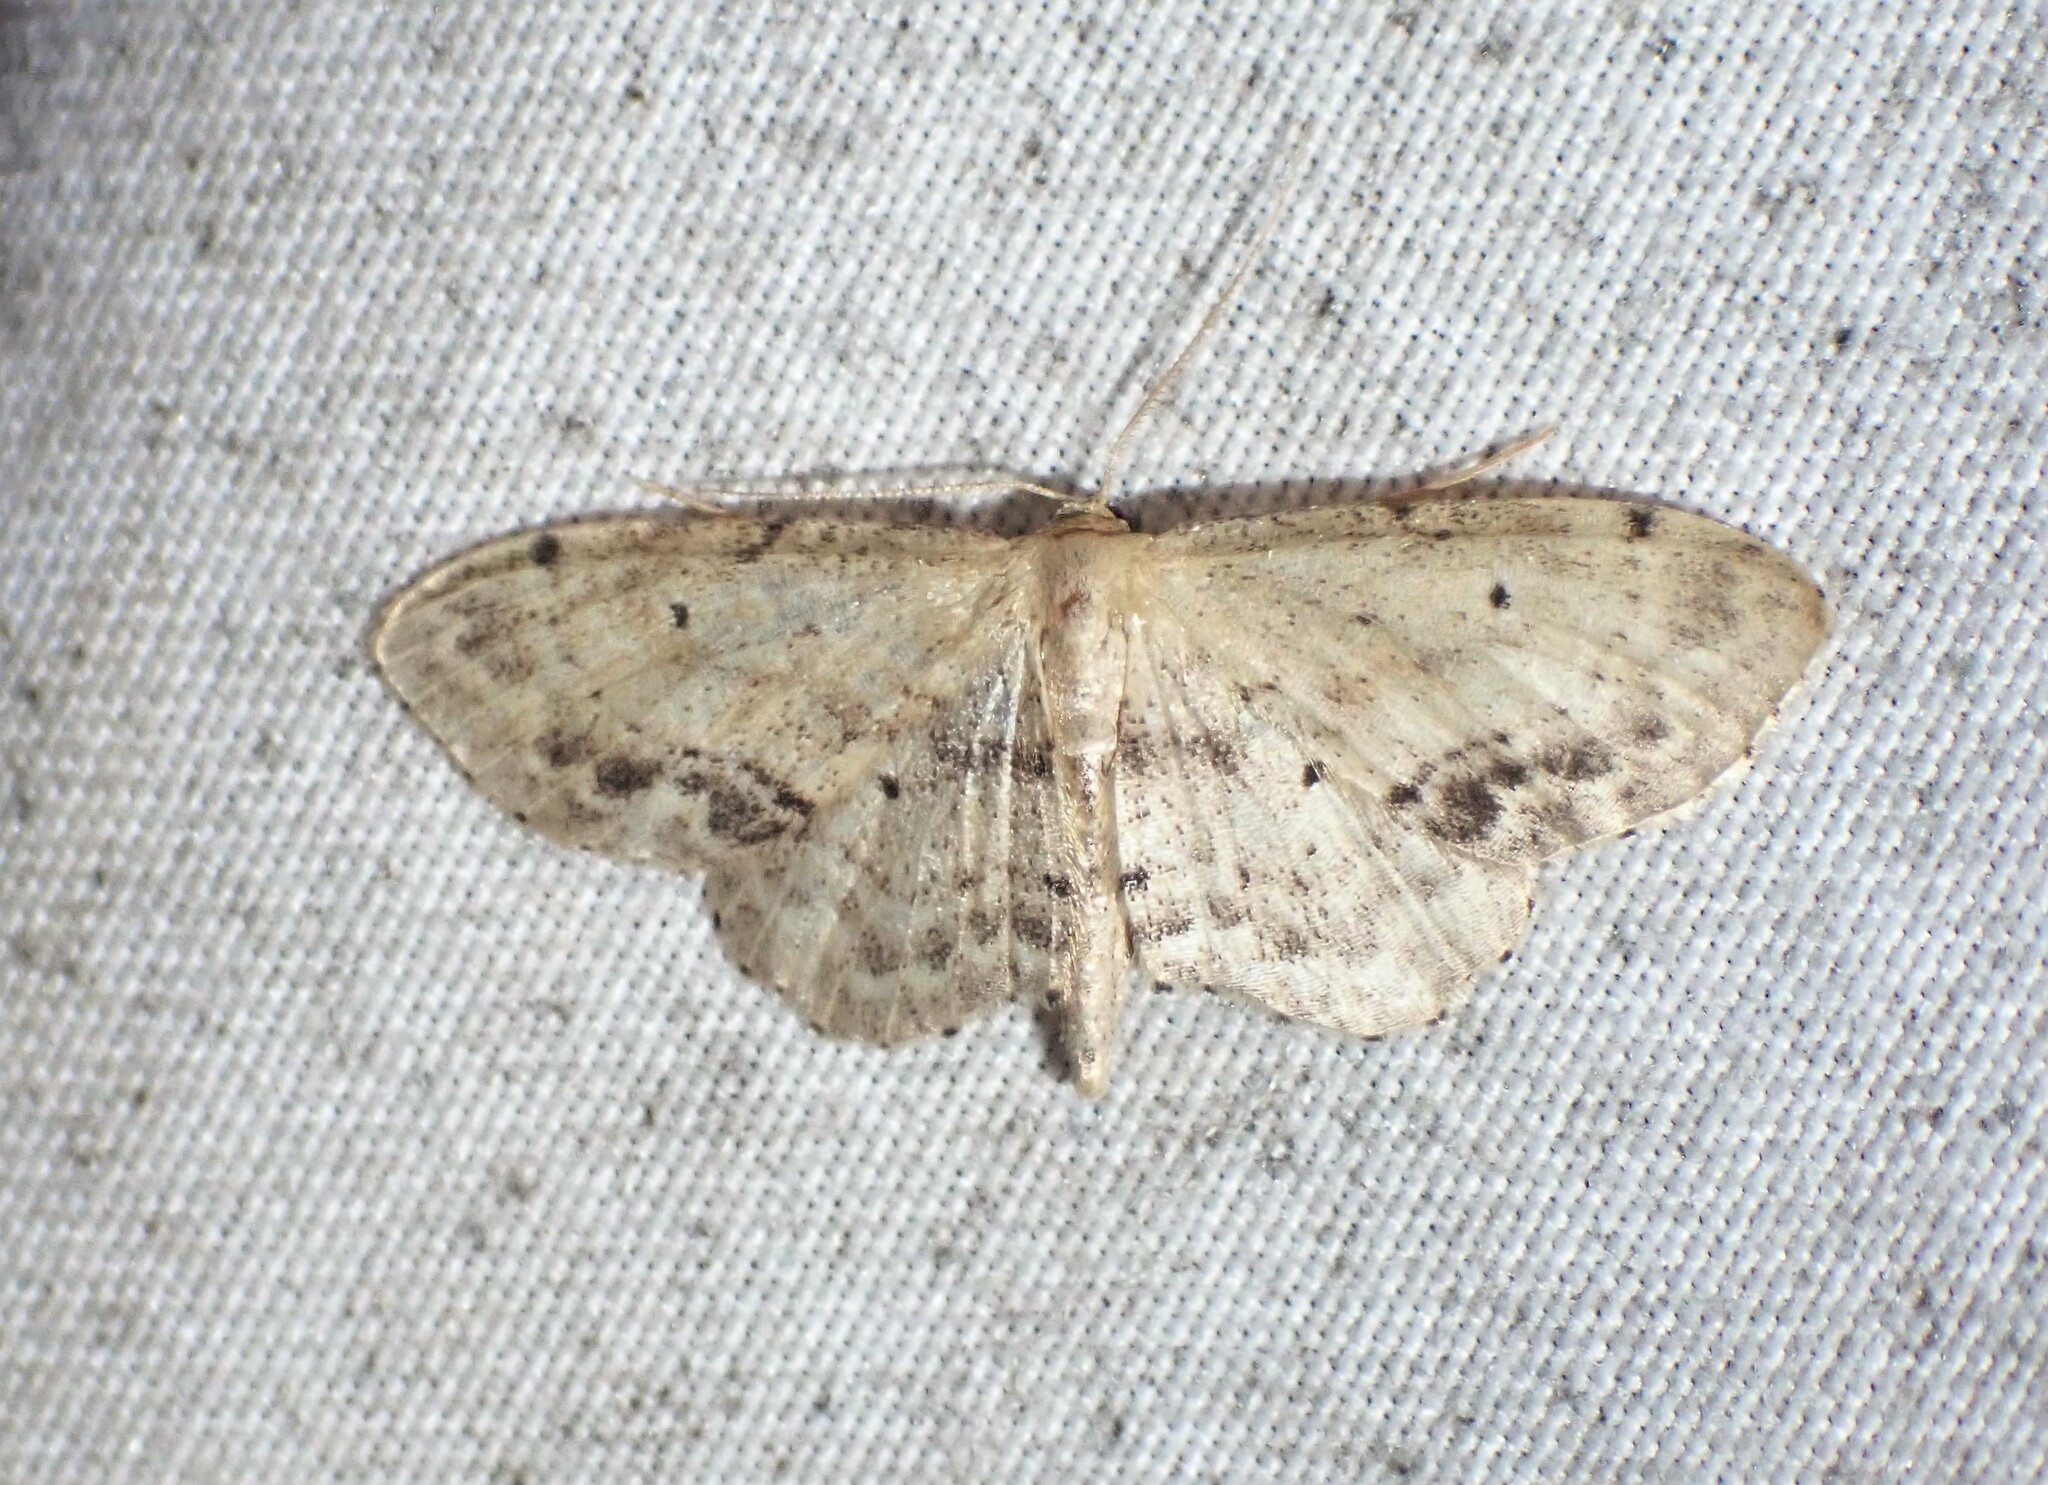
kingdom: Animalia
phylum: Arthropoda
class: Insecta
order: Lepidoptera
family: Geometridae
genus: Idaea
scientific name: Idaea dimidiata
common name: Single-dotted wave
